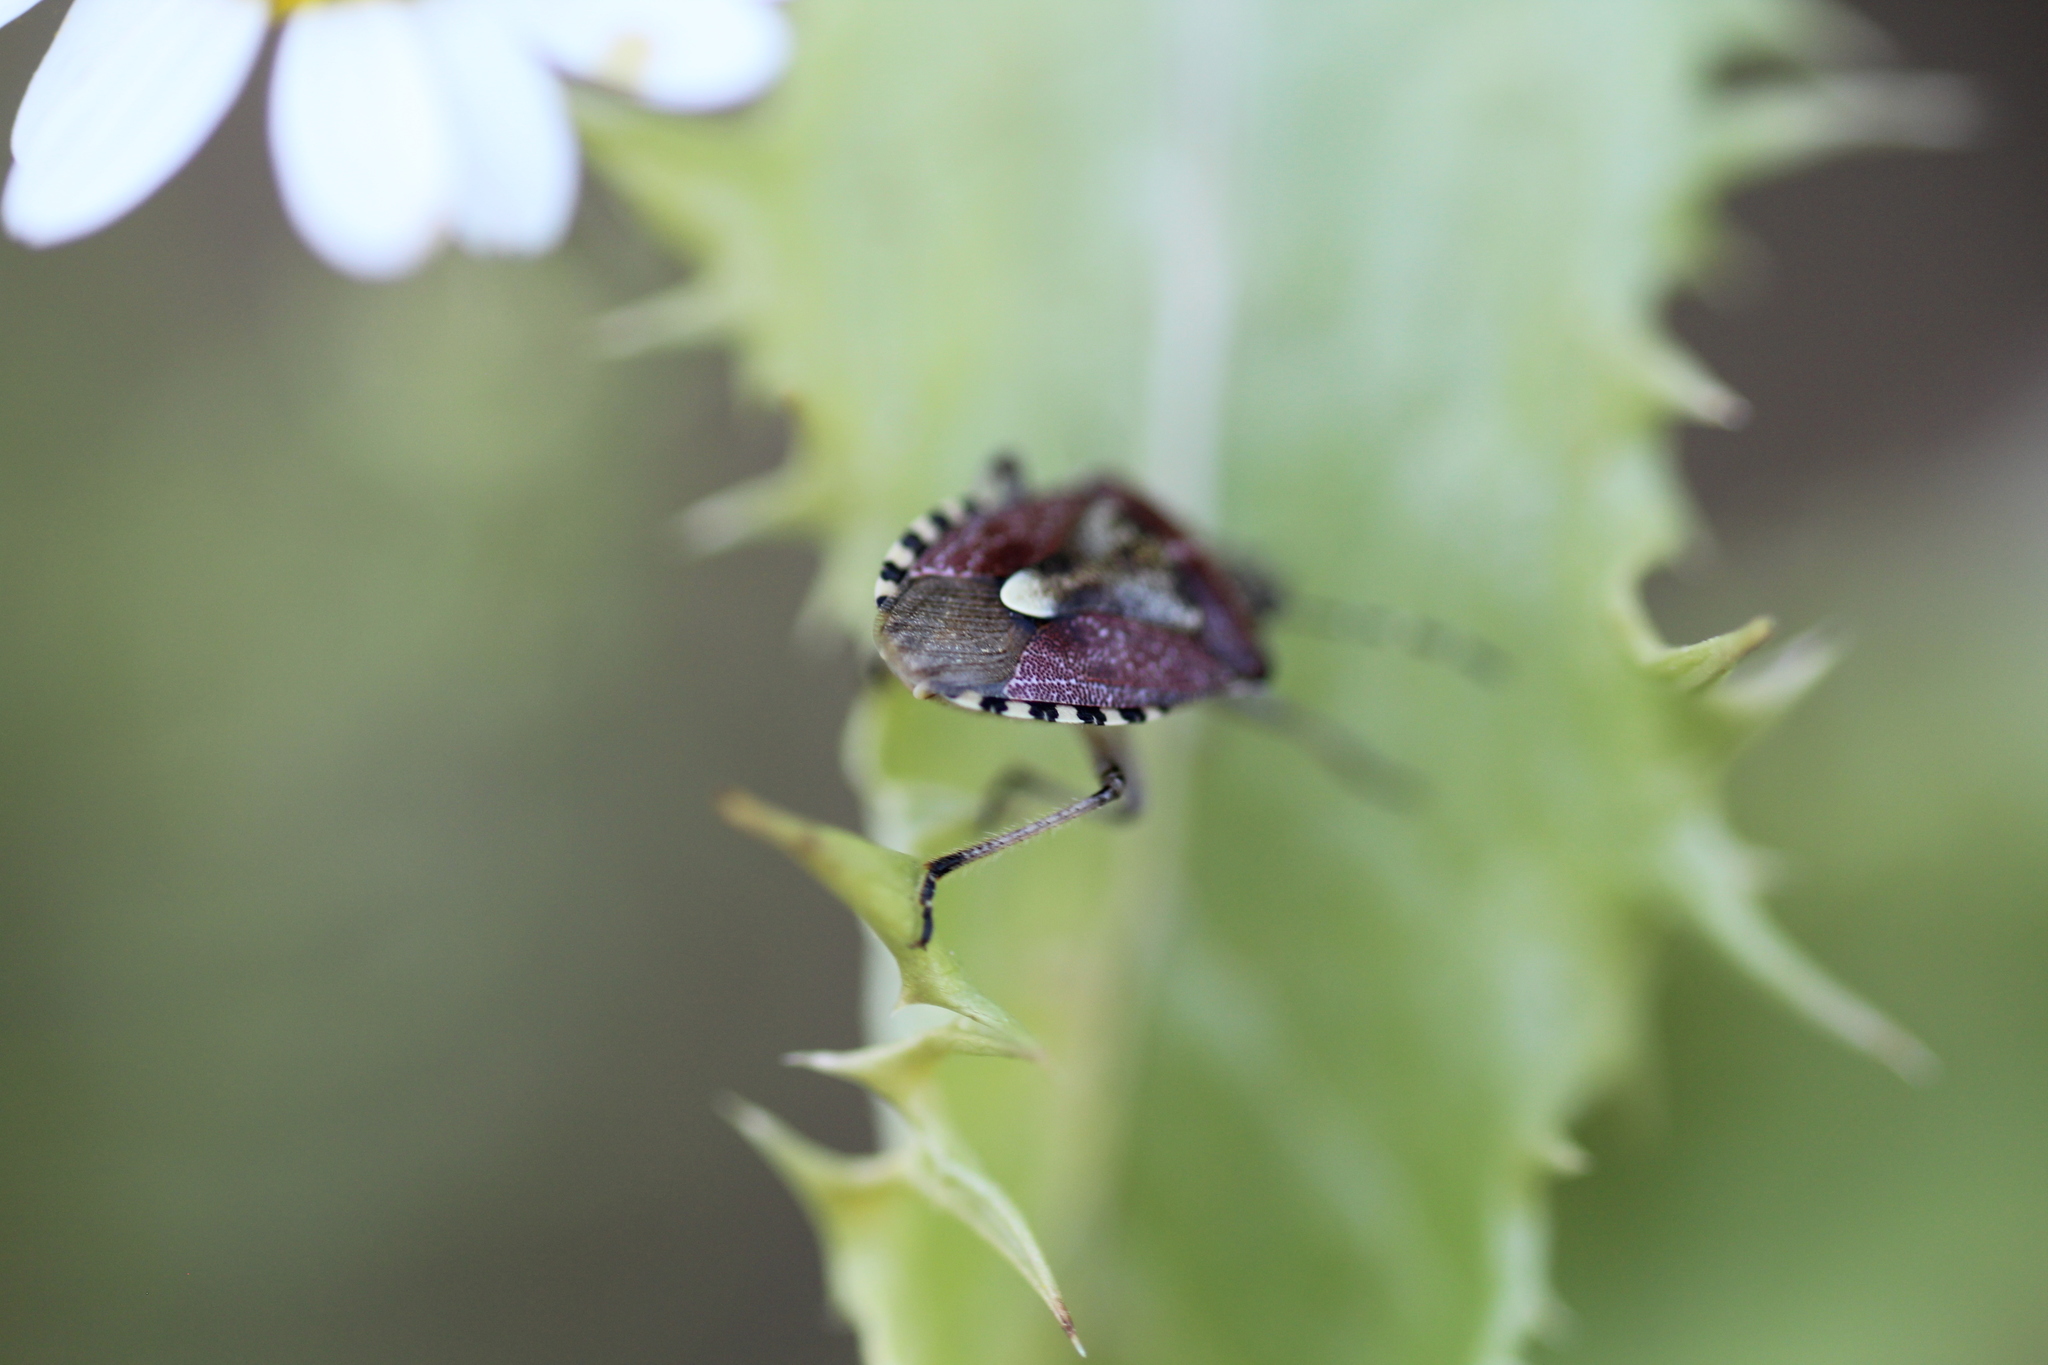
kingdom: Animalia
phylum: Arthropoda
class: Insecta
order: Hemiptera
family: Pentatomidae
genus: Dolycoris
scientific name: Dolycoris baccarum
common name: Sloe bug
